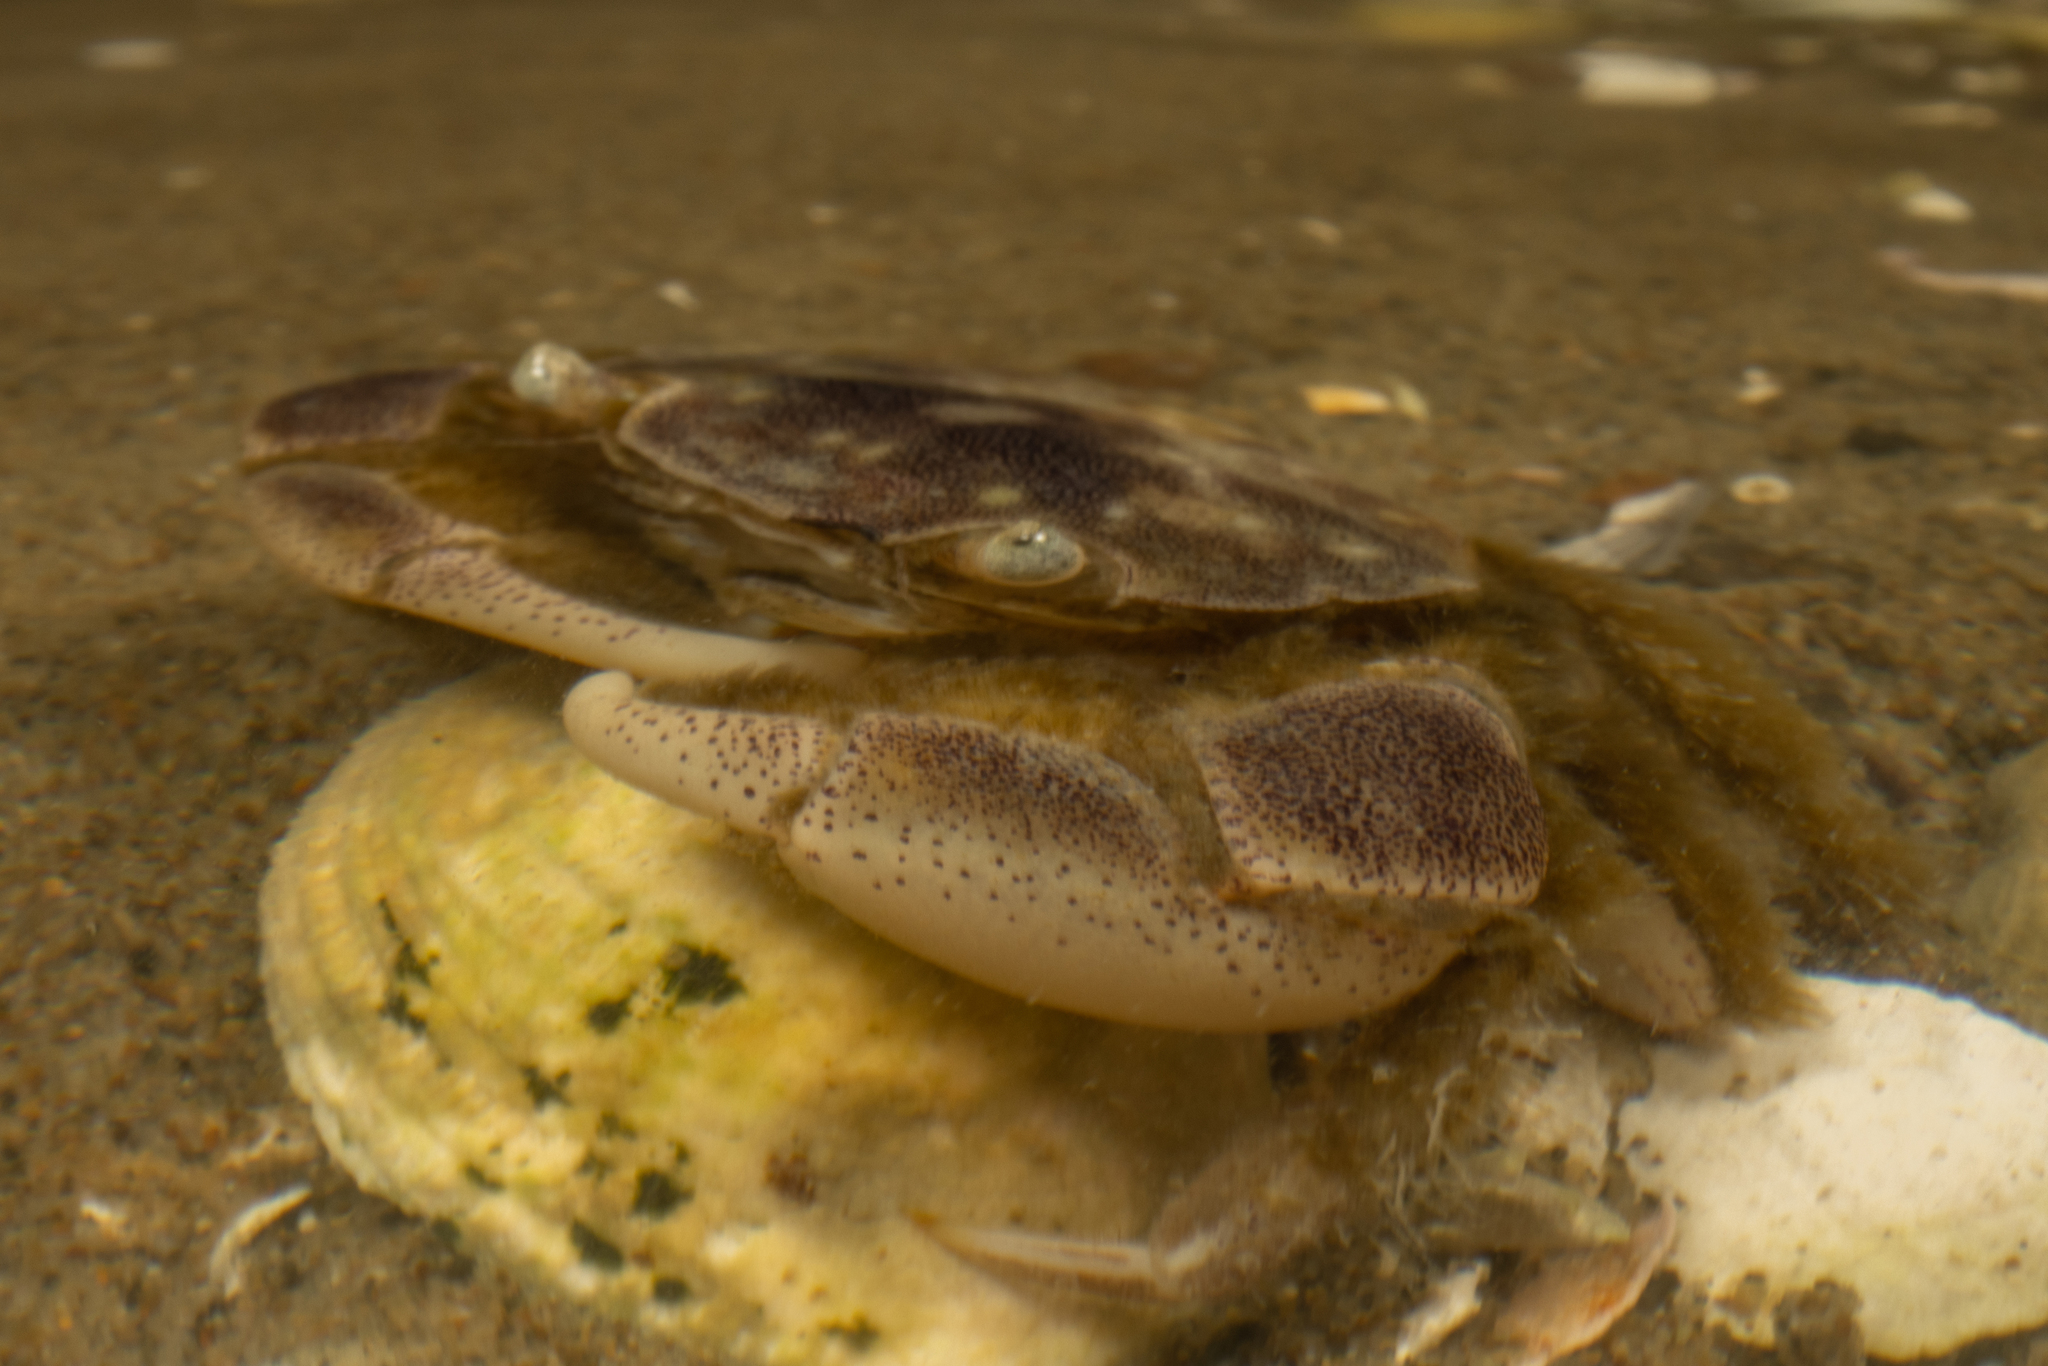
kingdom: Animalia
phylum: Arthropoda
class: Malacostraca
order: Decapoda
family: Varunidae
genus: Hemigrapsus
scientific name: Hemigrapsus crenulatus
